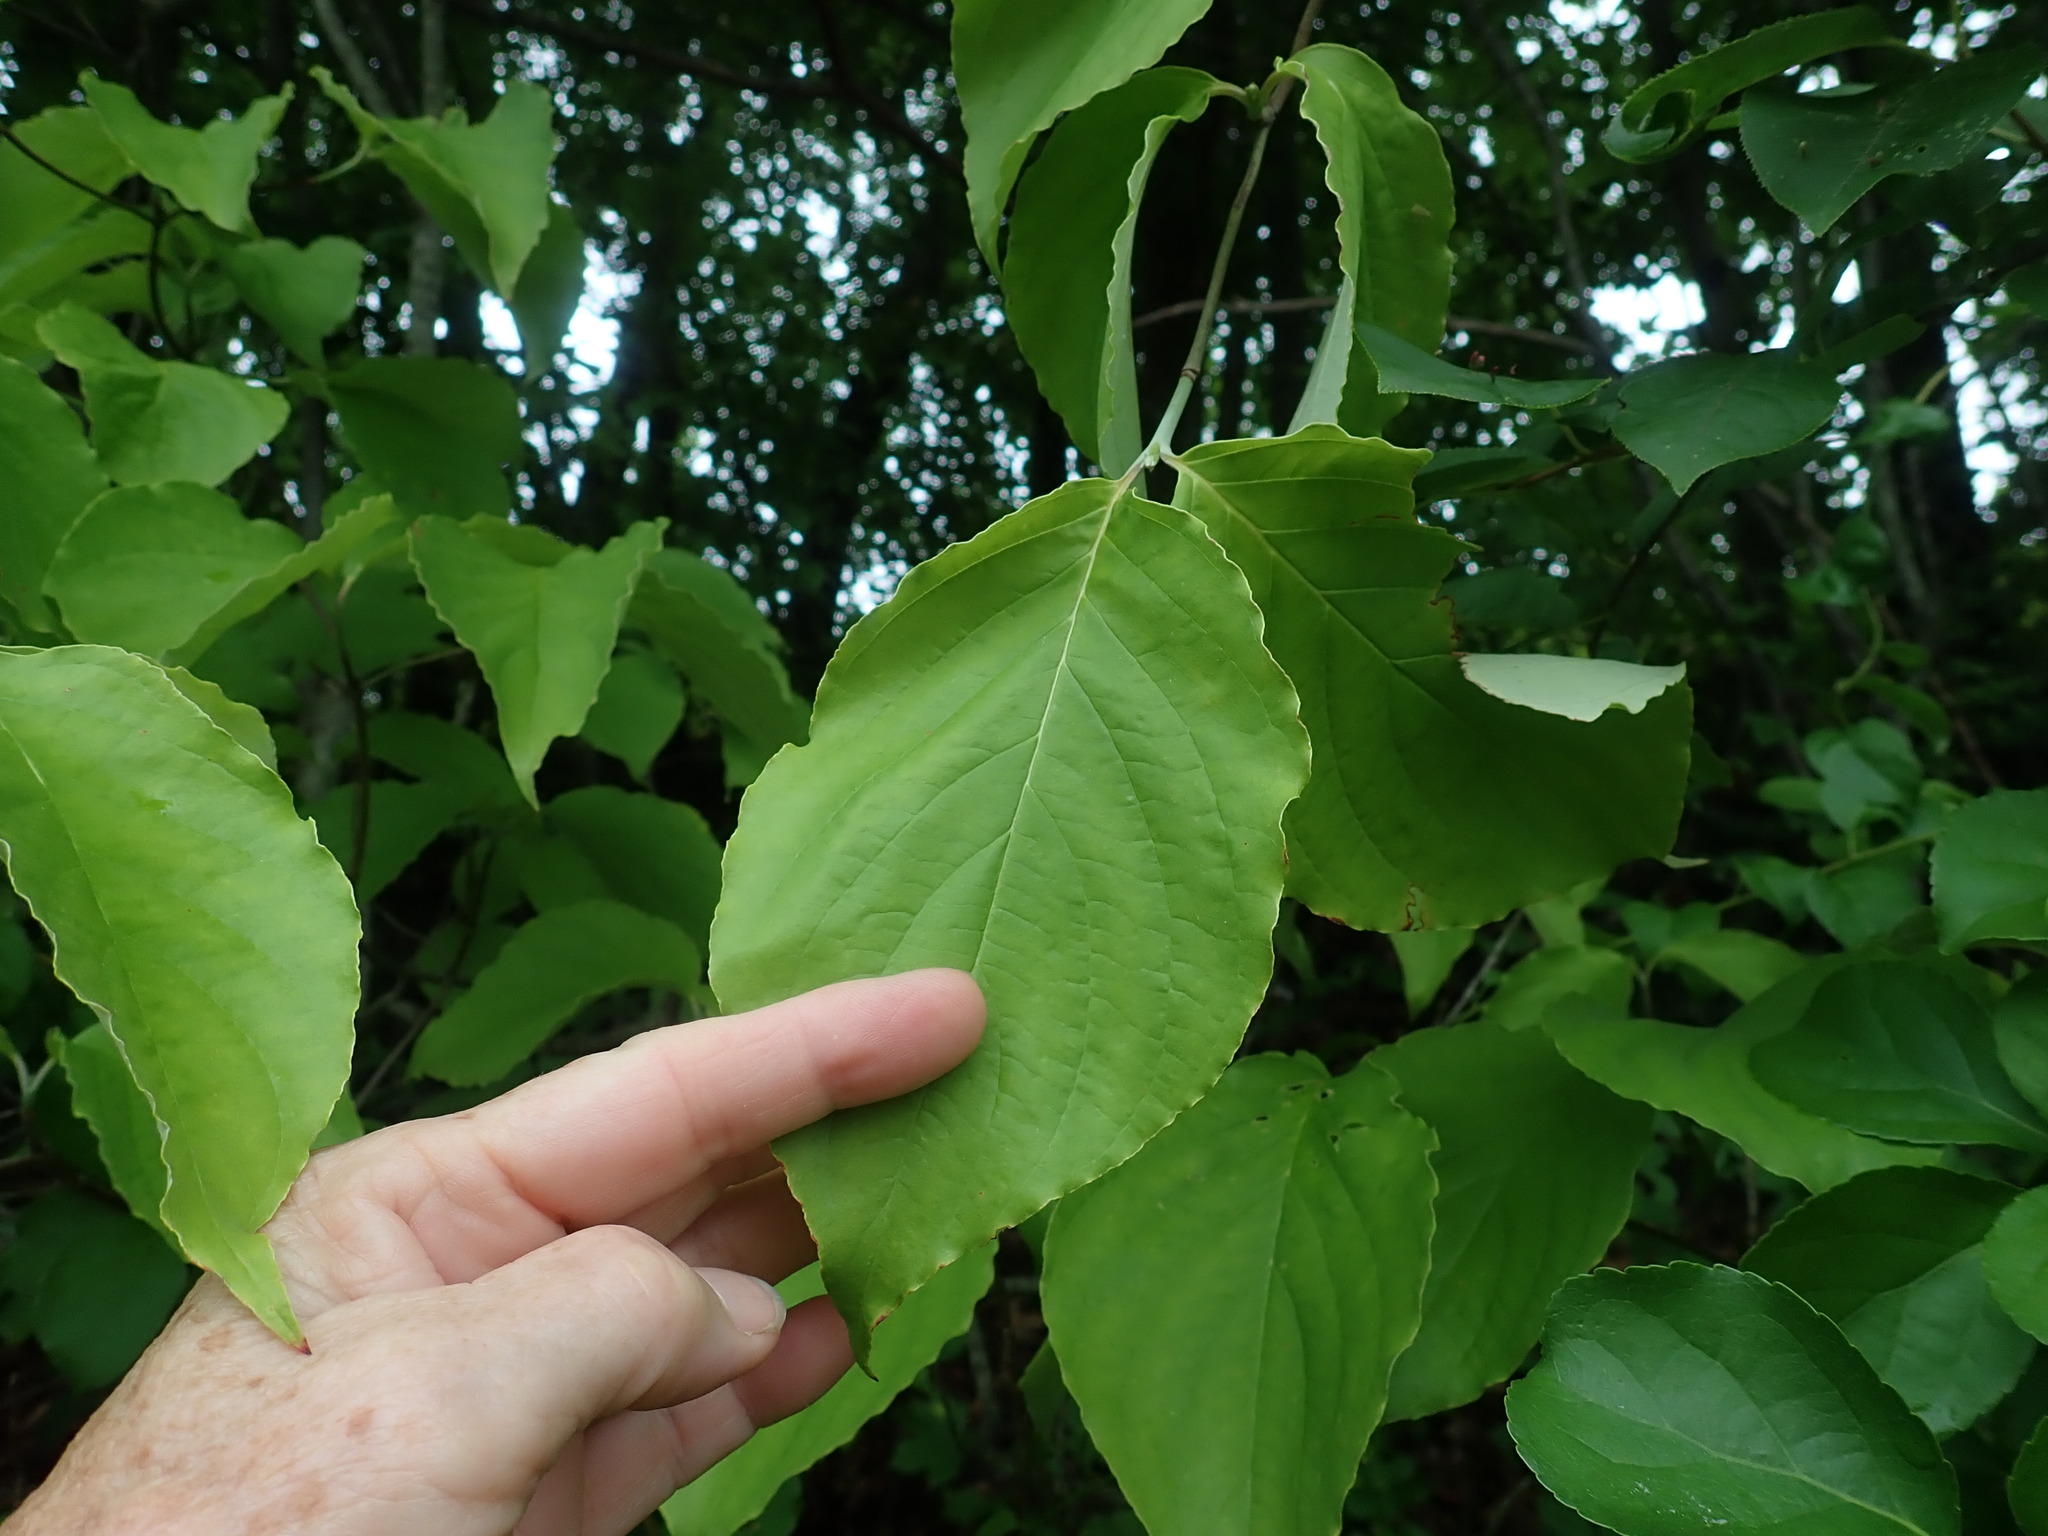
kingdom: Plantae
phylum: Tracheophyta
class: Magnoliopsida
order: Cornales
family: Cornaceae
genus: Cornus
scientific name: Cornus florida
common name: Flowering dogwood
